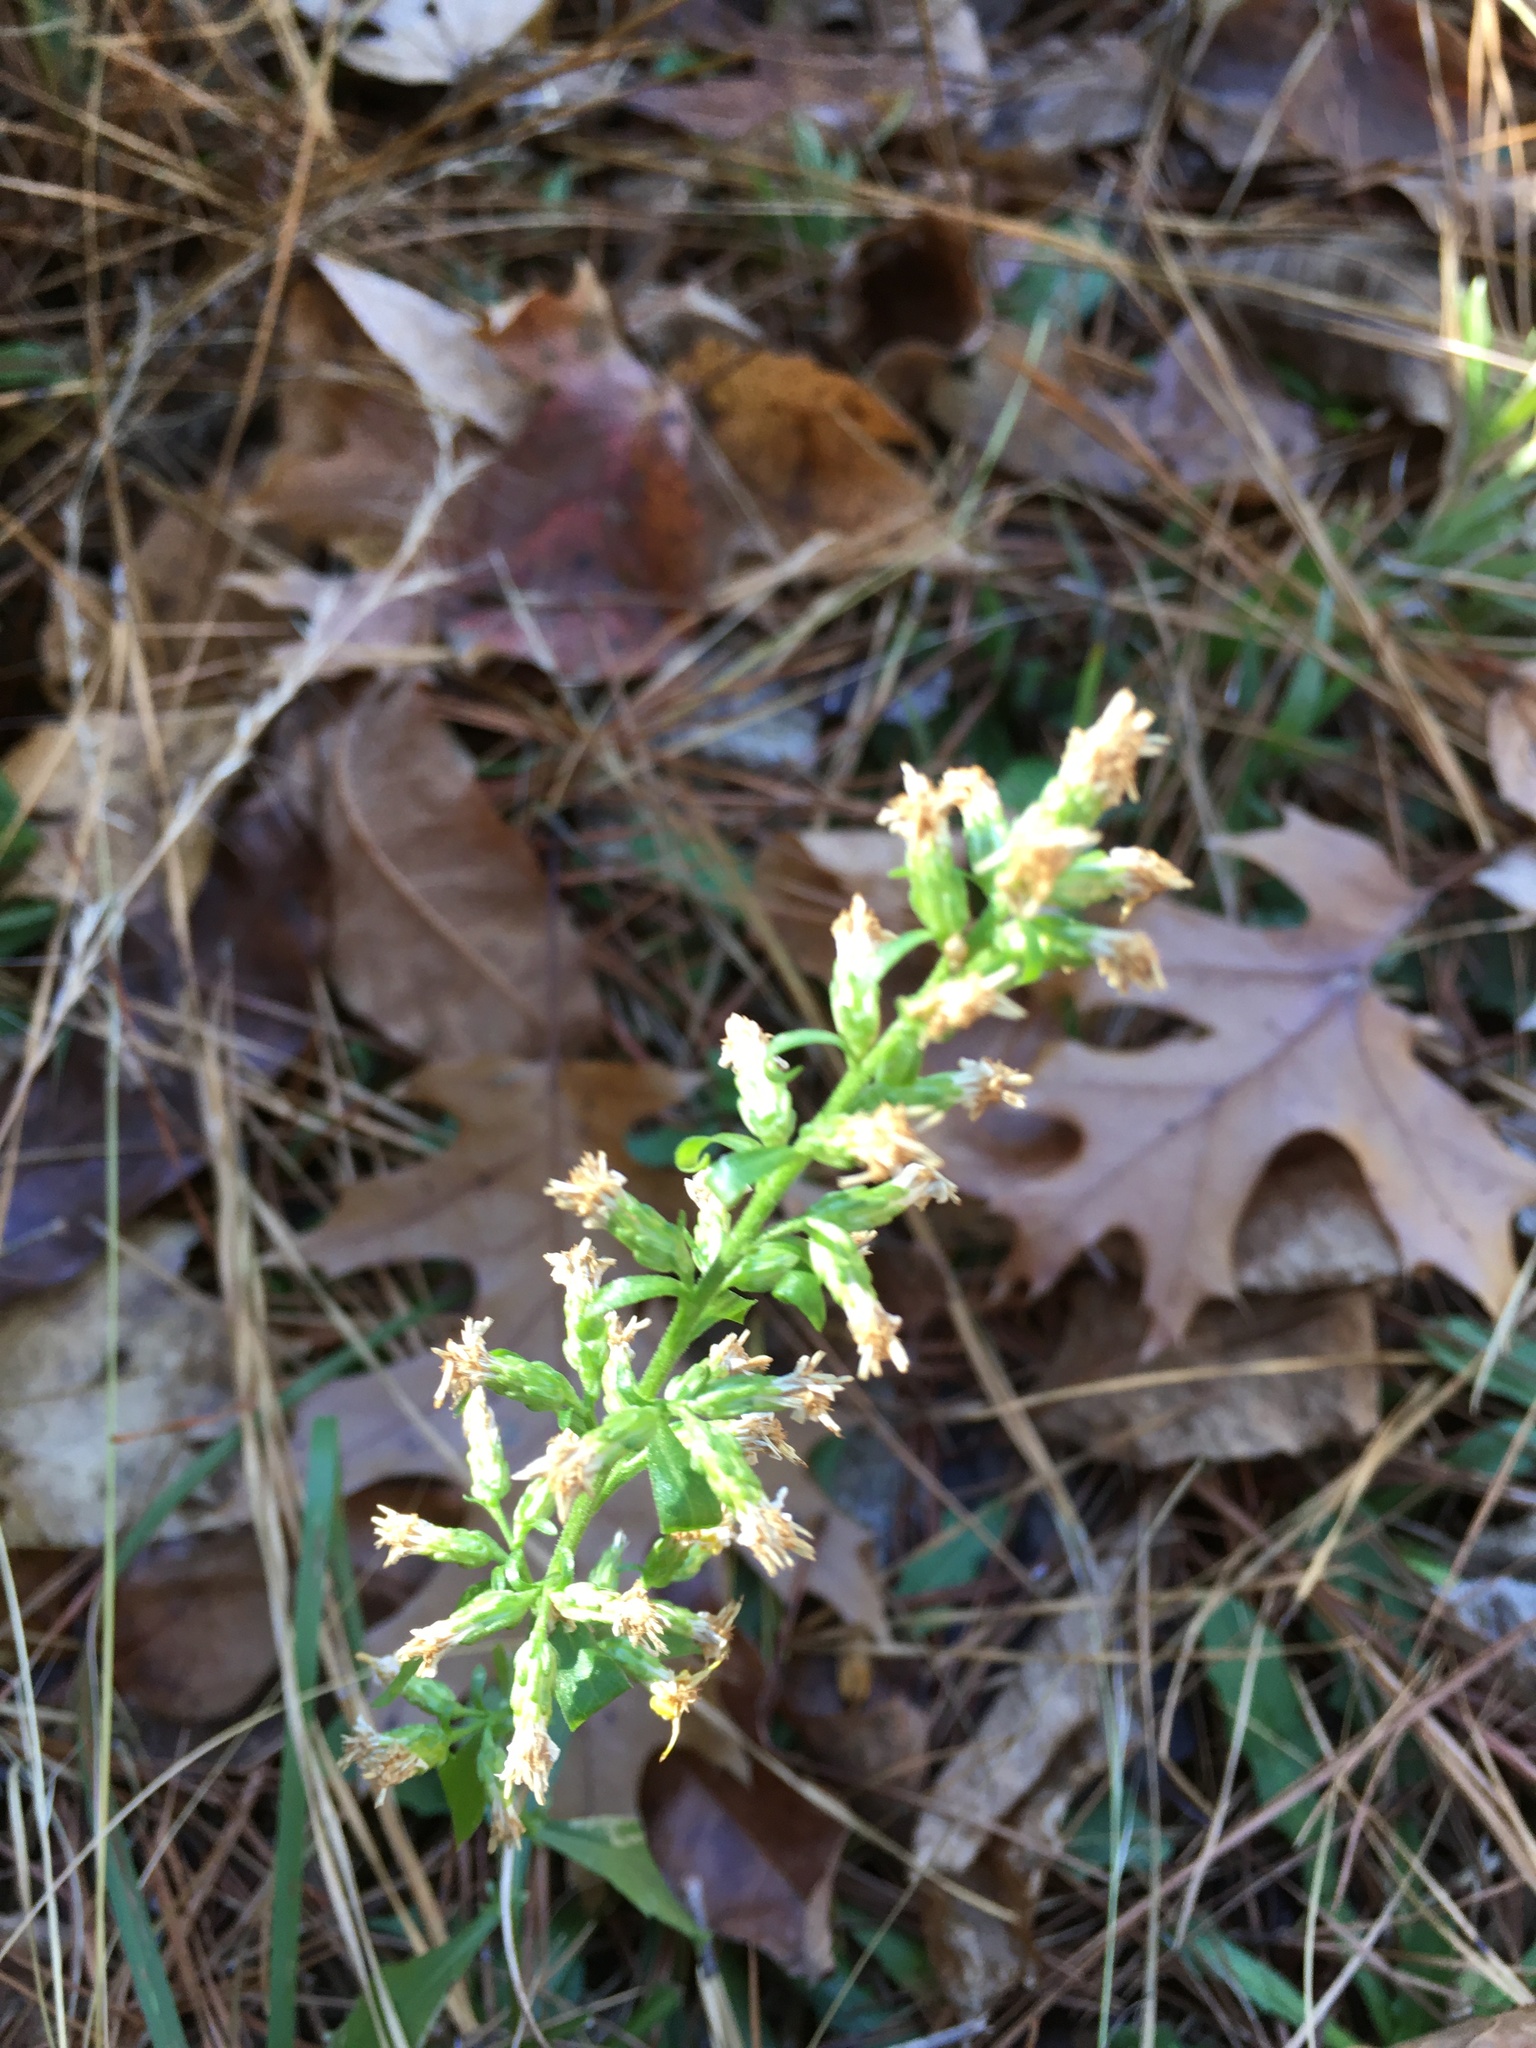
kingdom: Plantae
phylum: Tracheophyta
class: Magnoliopsida
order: Asterales
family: Asteraceae
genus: Solidago
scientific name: Solidago erecta
